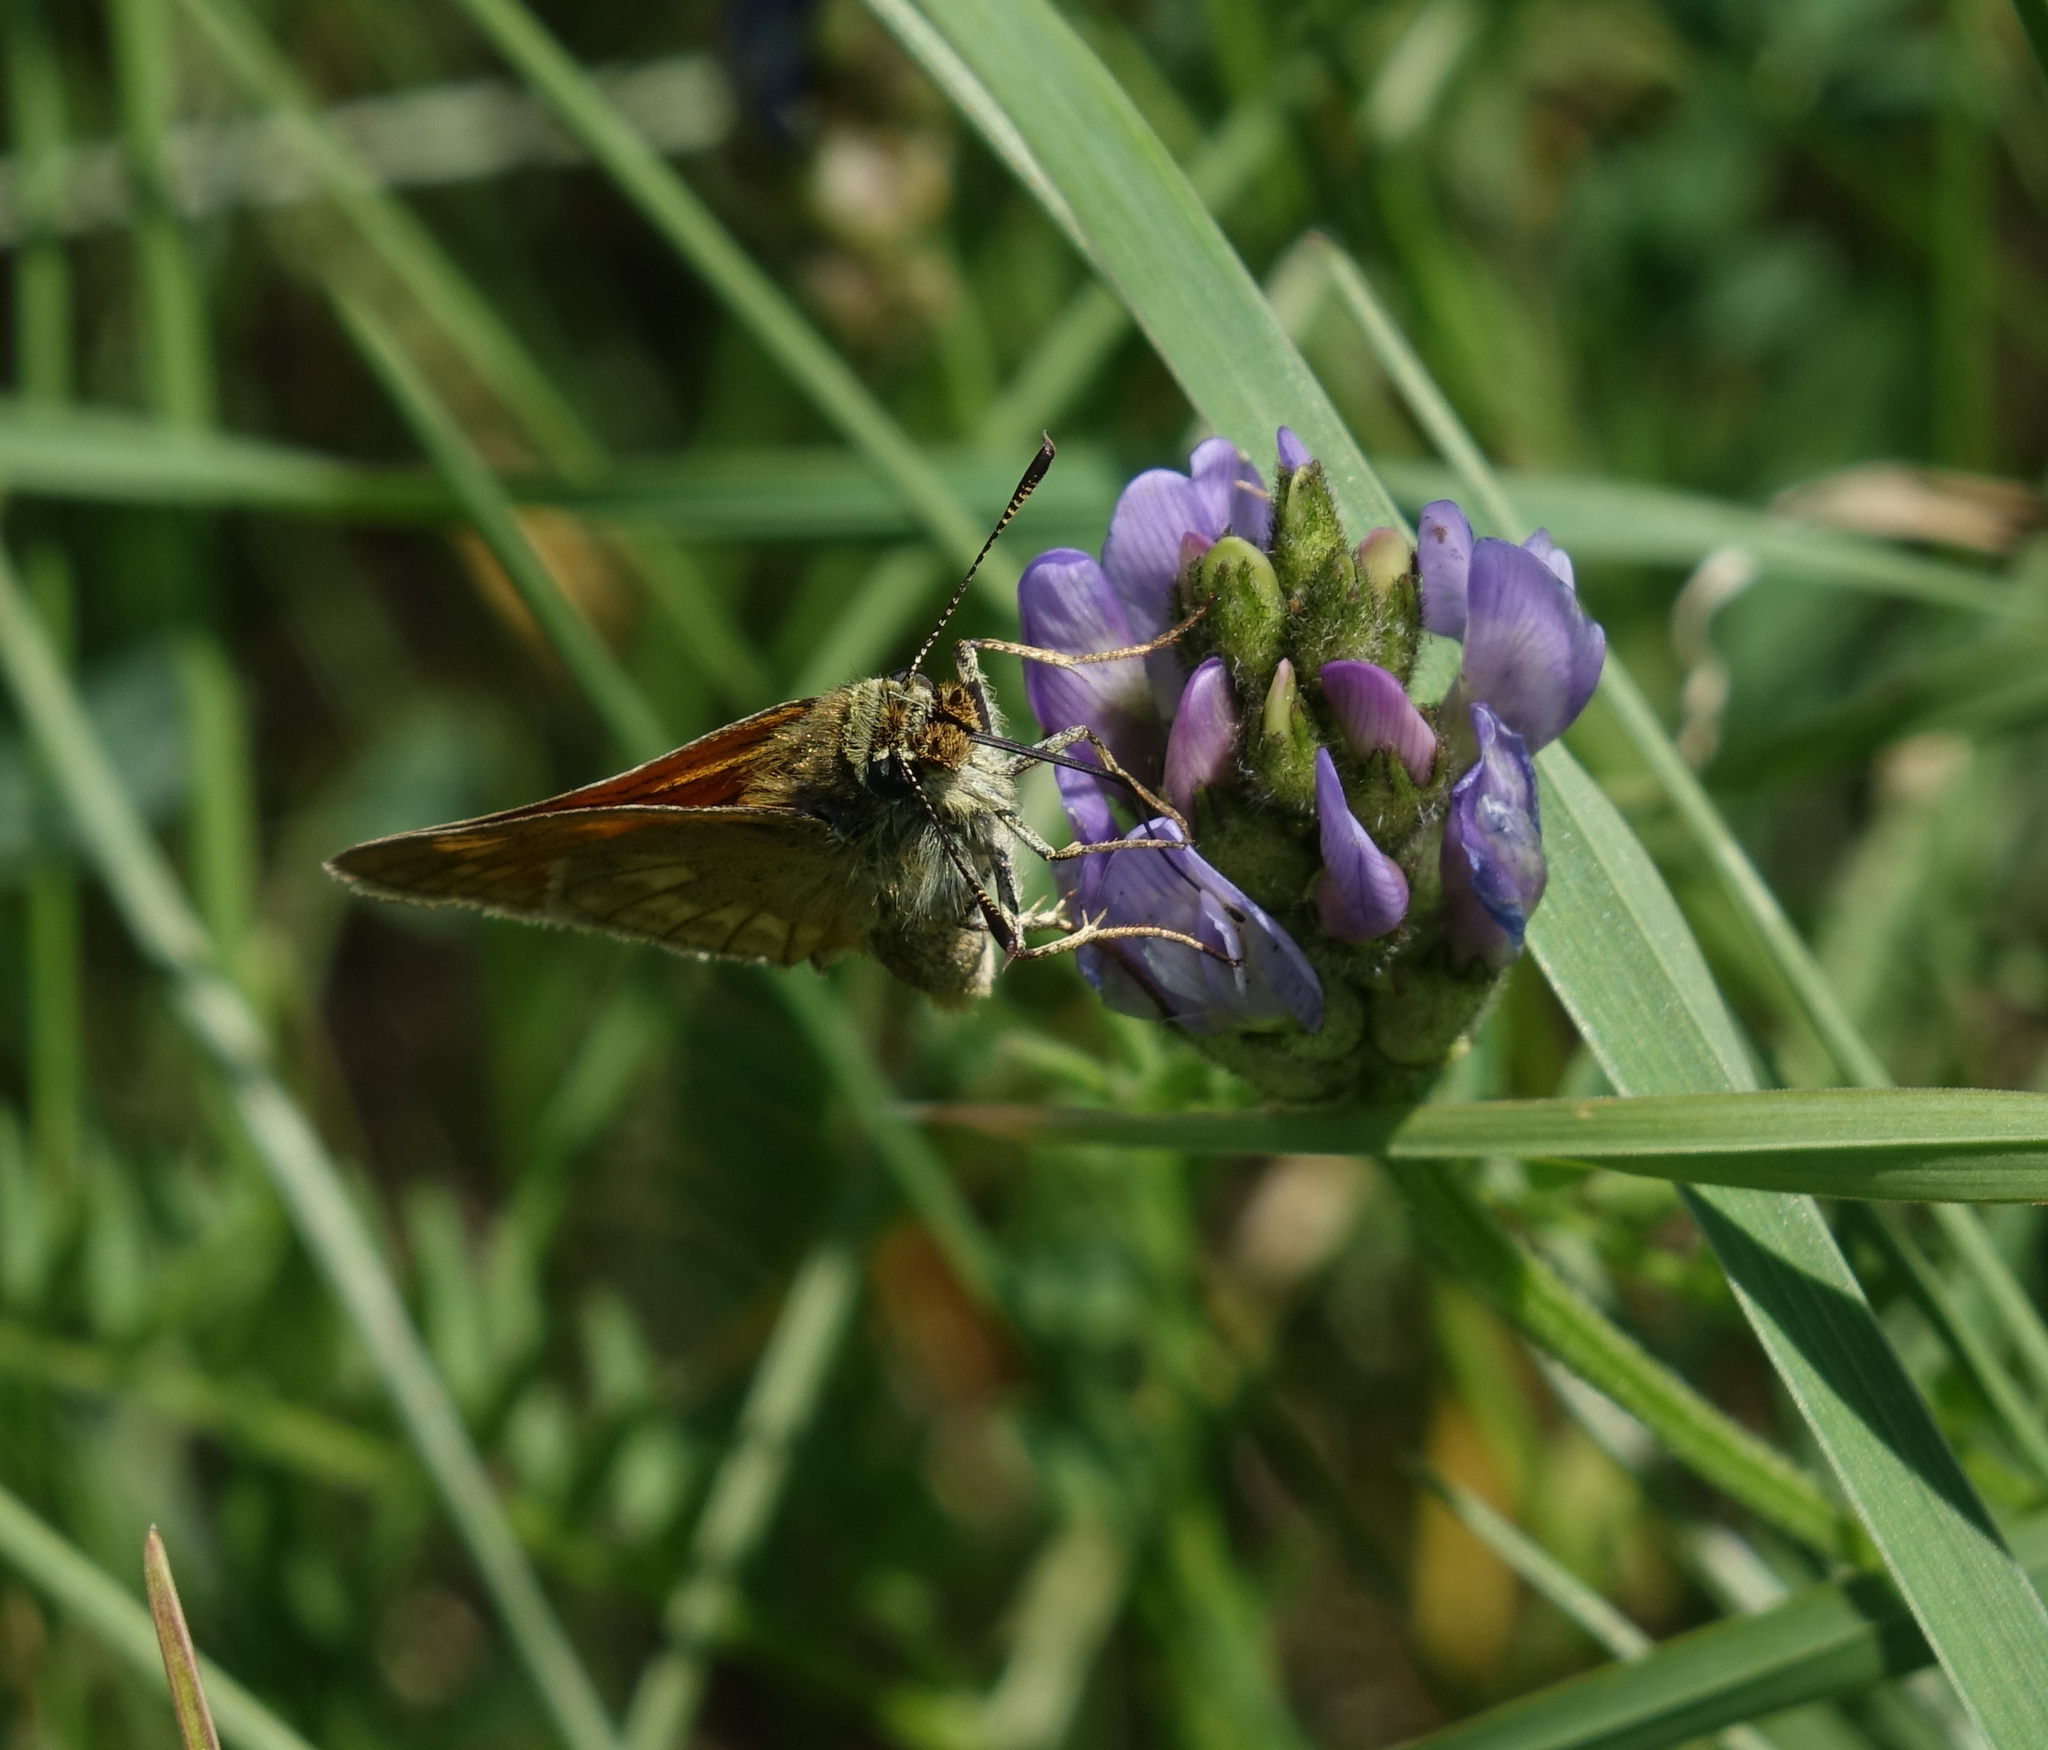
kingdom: Plantae
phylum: Tracheophyta
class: Magnoliopsida
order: Fabales
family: Fabaceae
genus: Astragalus
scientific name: Astragalus danicus
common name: Purple milk-vetch
